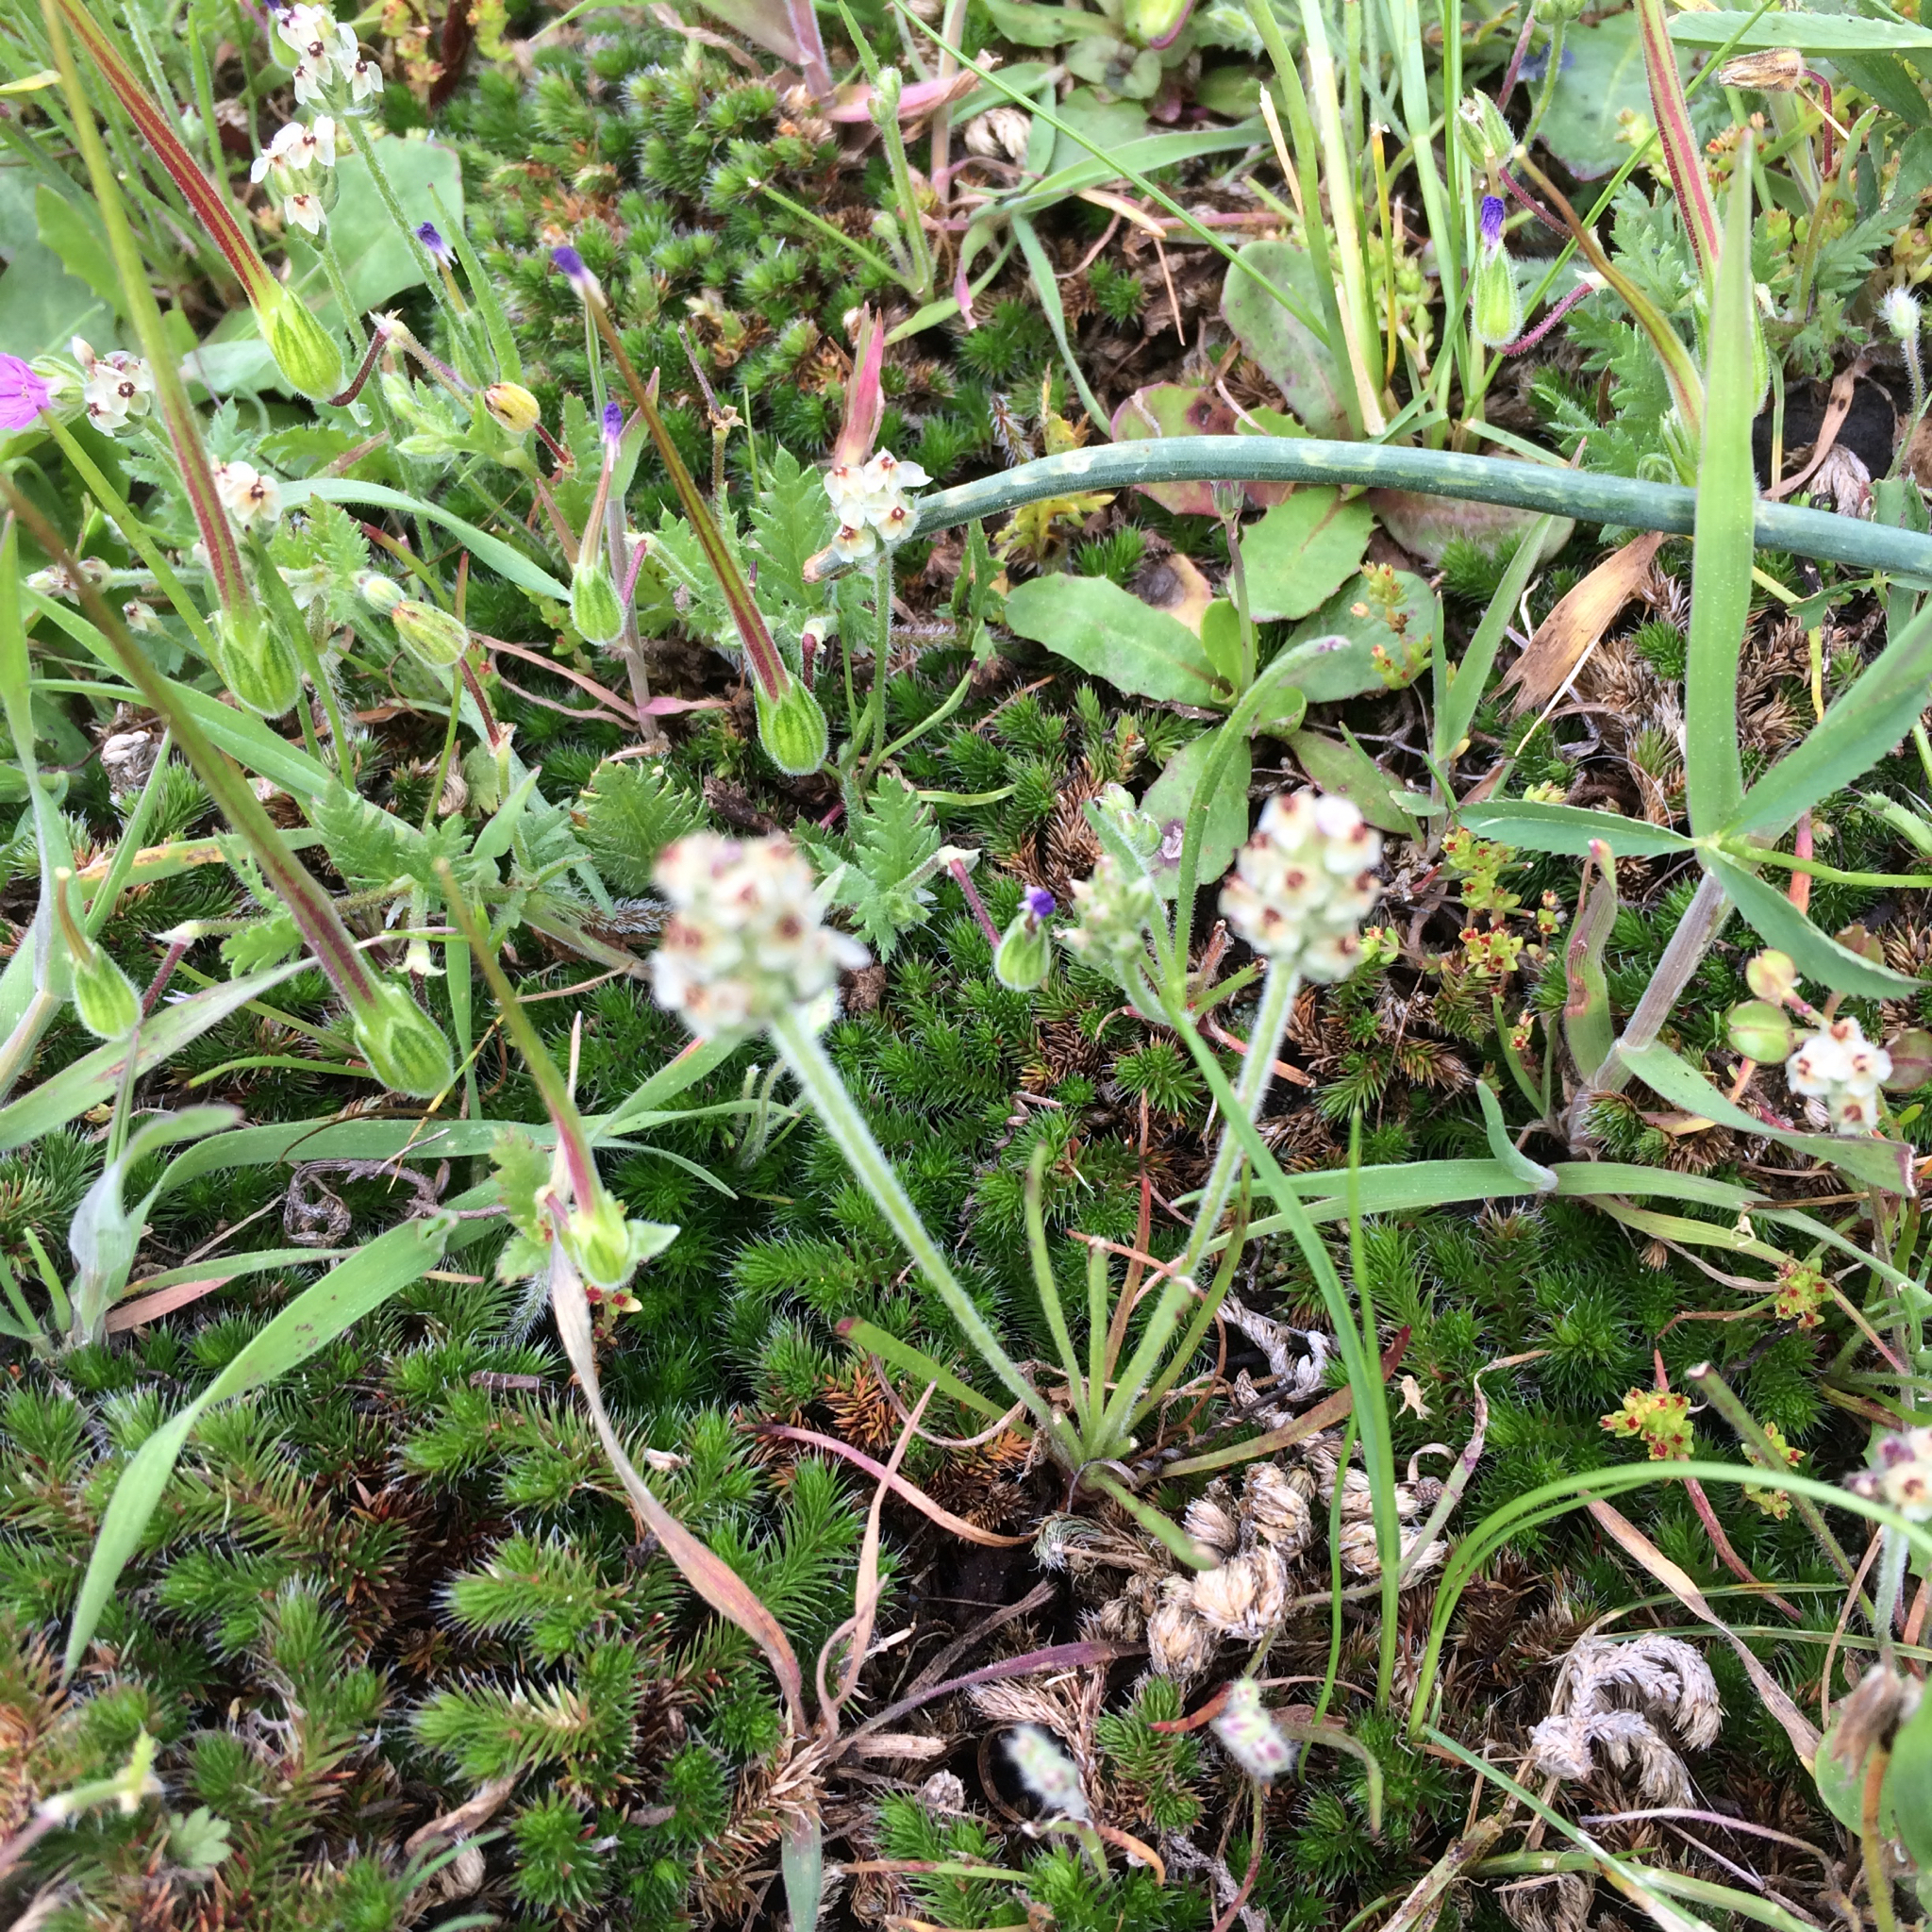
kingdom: Plantae
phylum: Tracheophyta
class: Magnoliopsida
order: Lamiales
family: Plantaginaceae
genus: Plantago
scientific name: Plantago erecta
